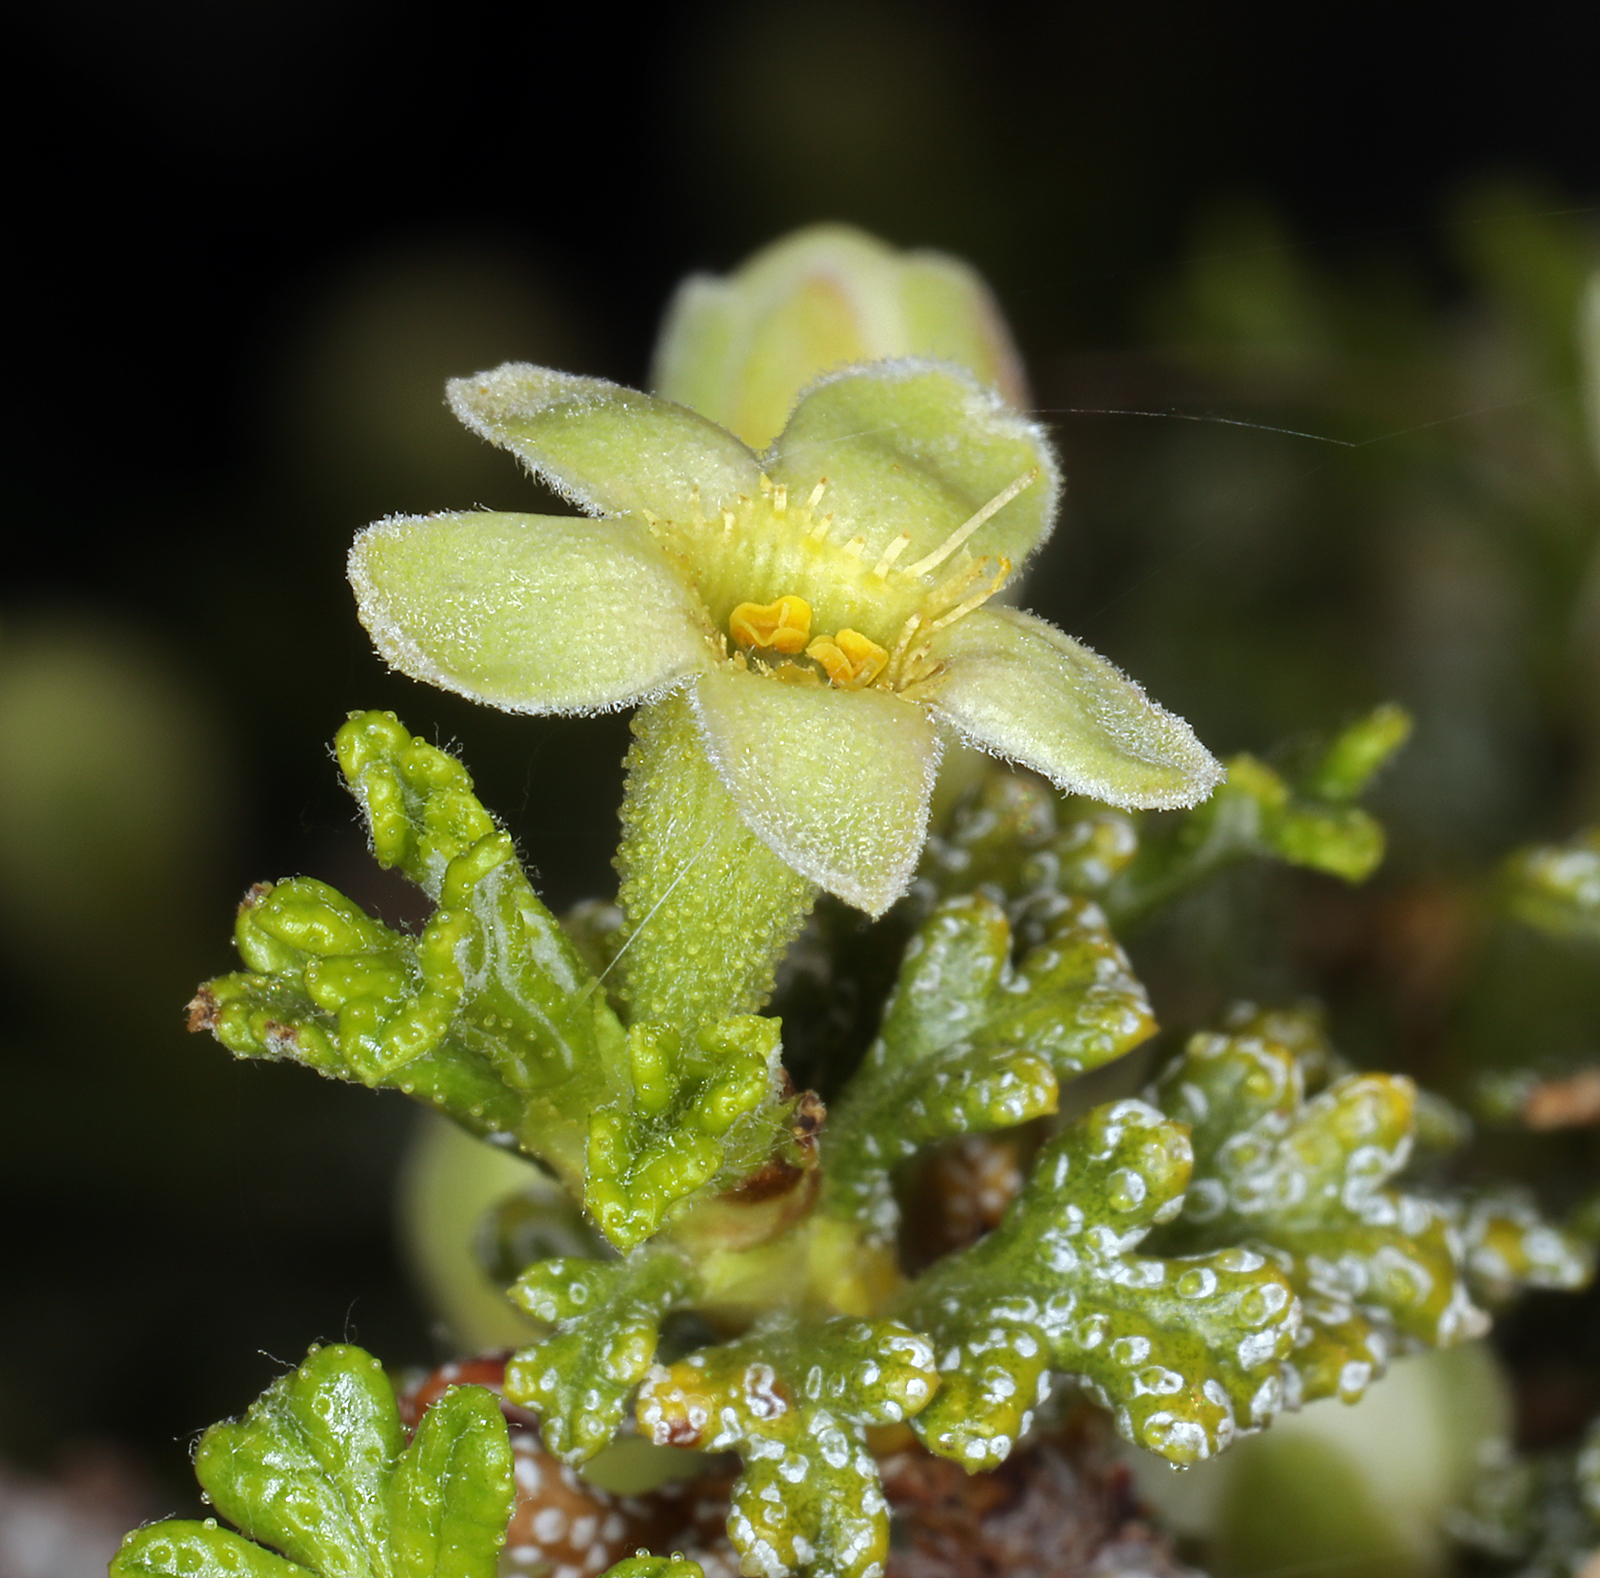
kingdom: Plantae
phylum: Tracheophyta
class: Magnoliopsida
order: Rosales
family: Rosaceae
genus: Purshia
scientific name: Purshia glandulosa
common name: Desert bitterbrush
